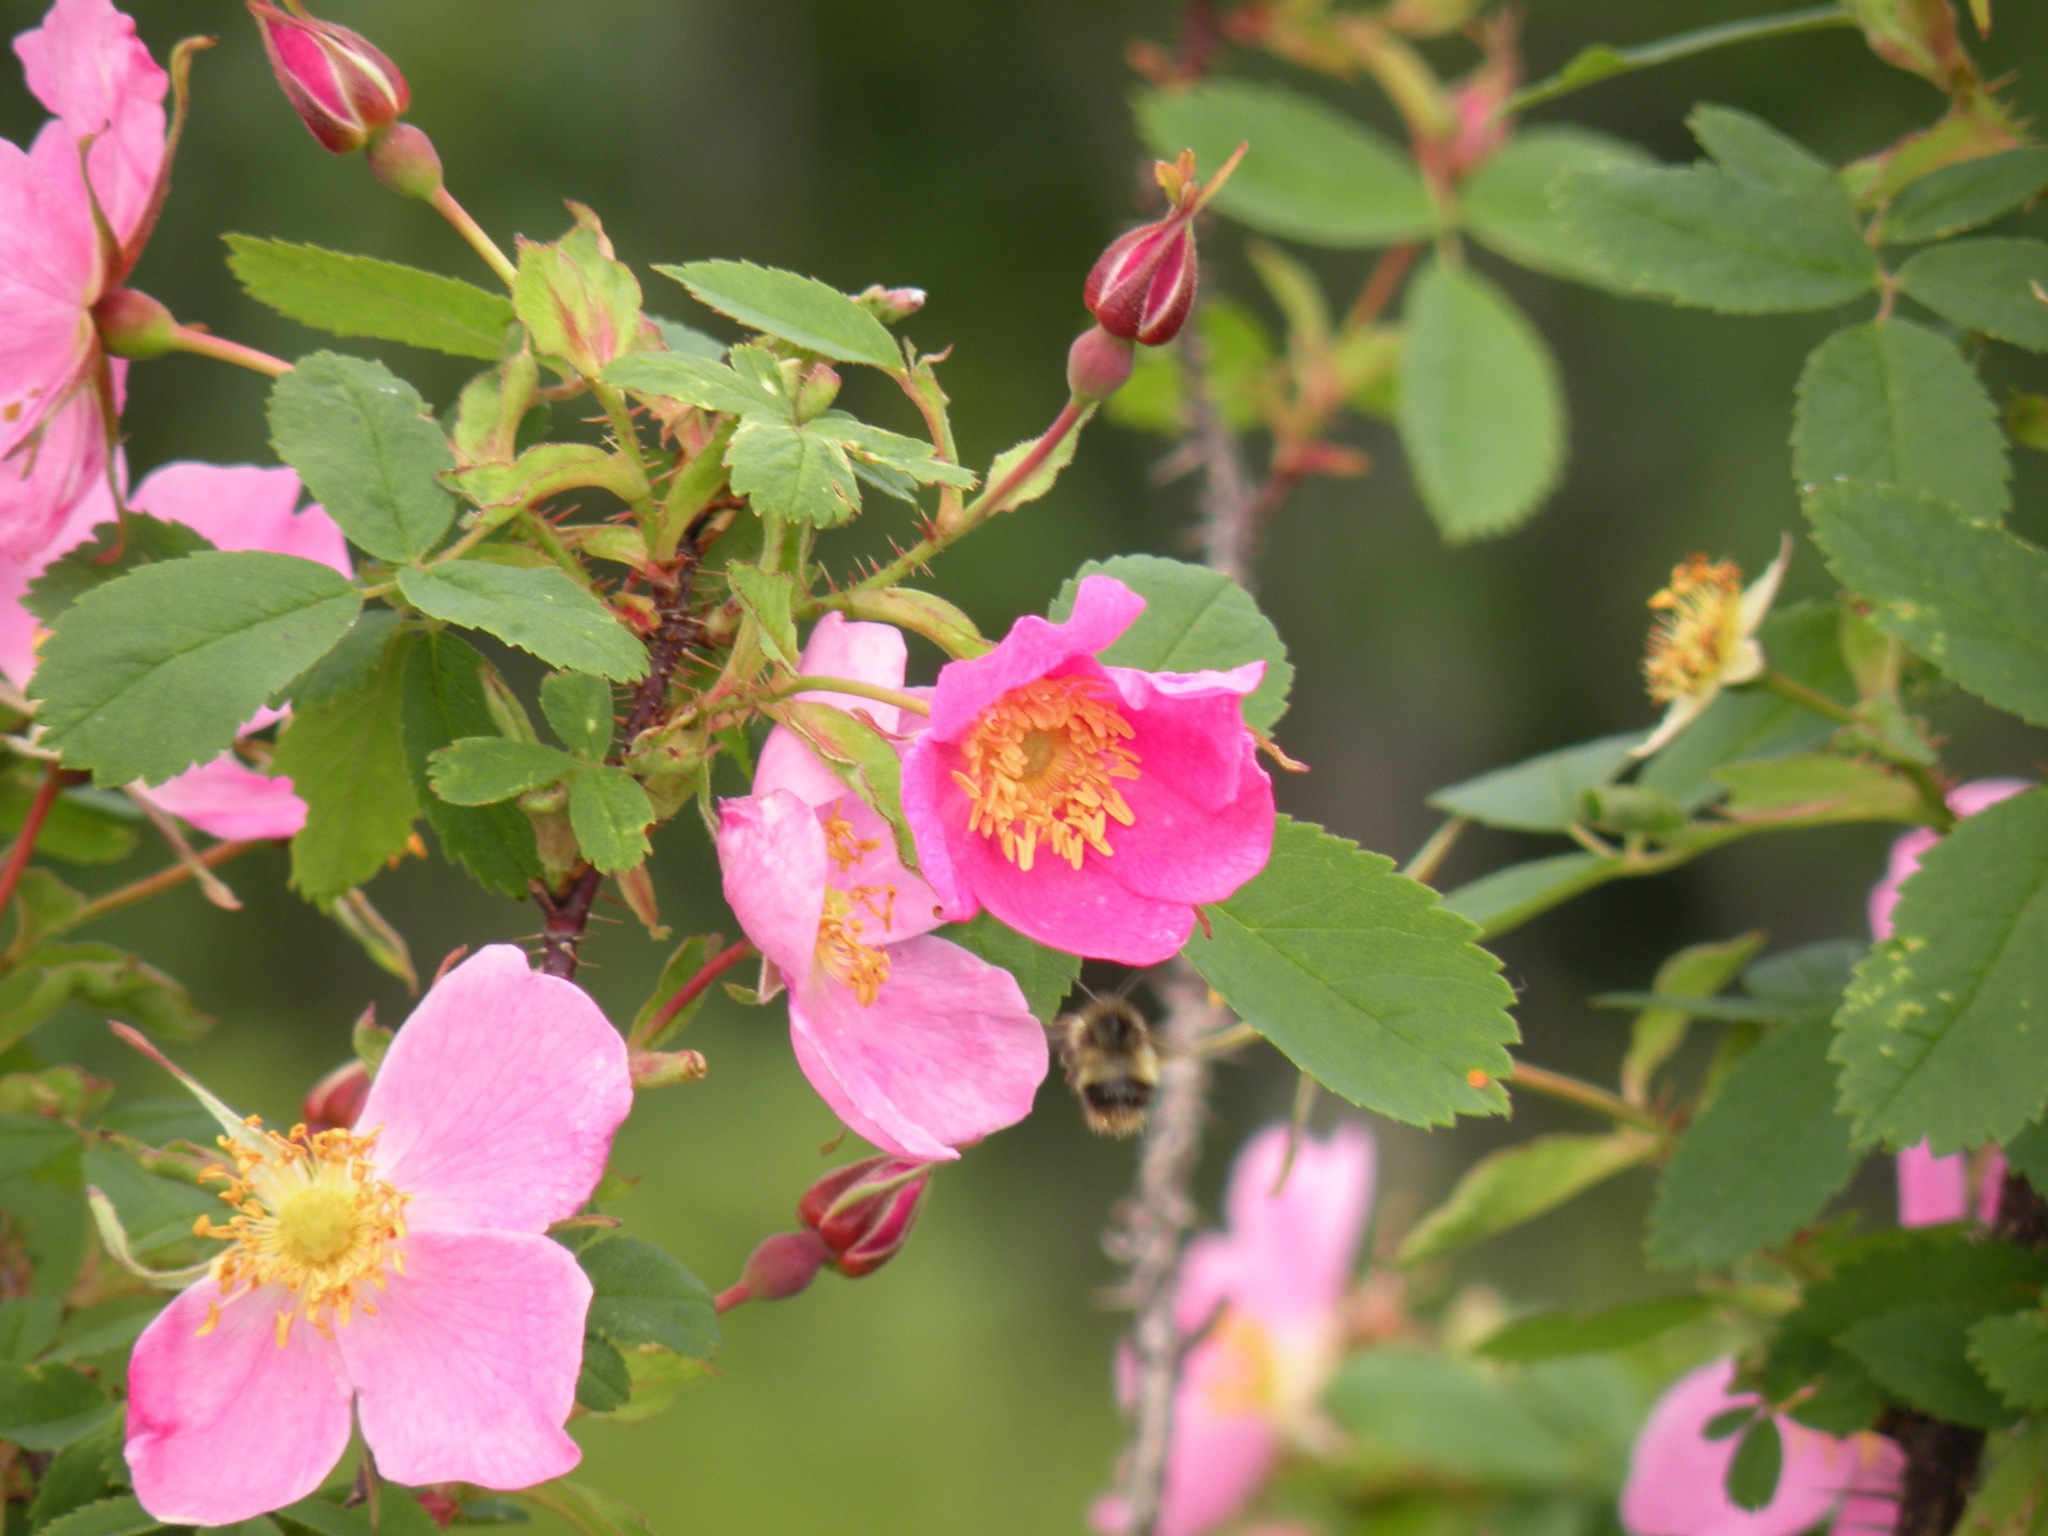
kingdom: Plantae
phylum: Tracheophyta
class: Magnoliopsida
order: Rosales
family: Rosaceae
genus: Rosa
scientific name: Rosa acicularis
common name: Prickly rose
